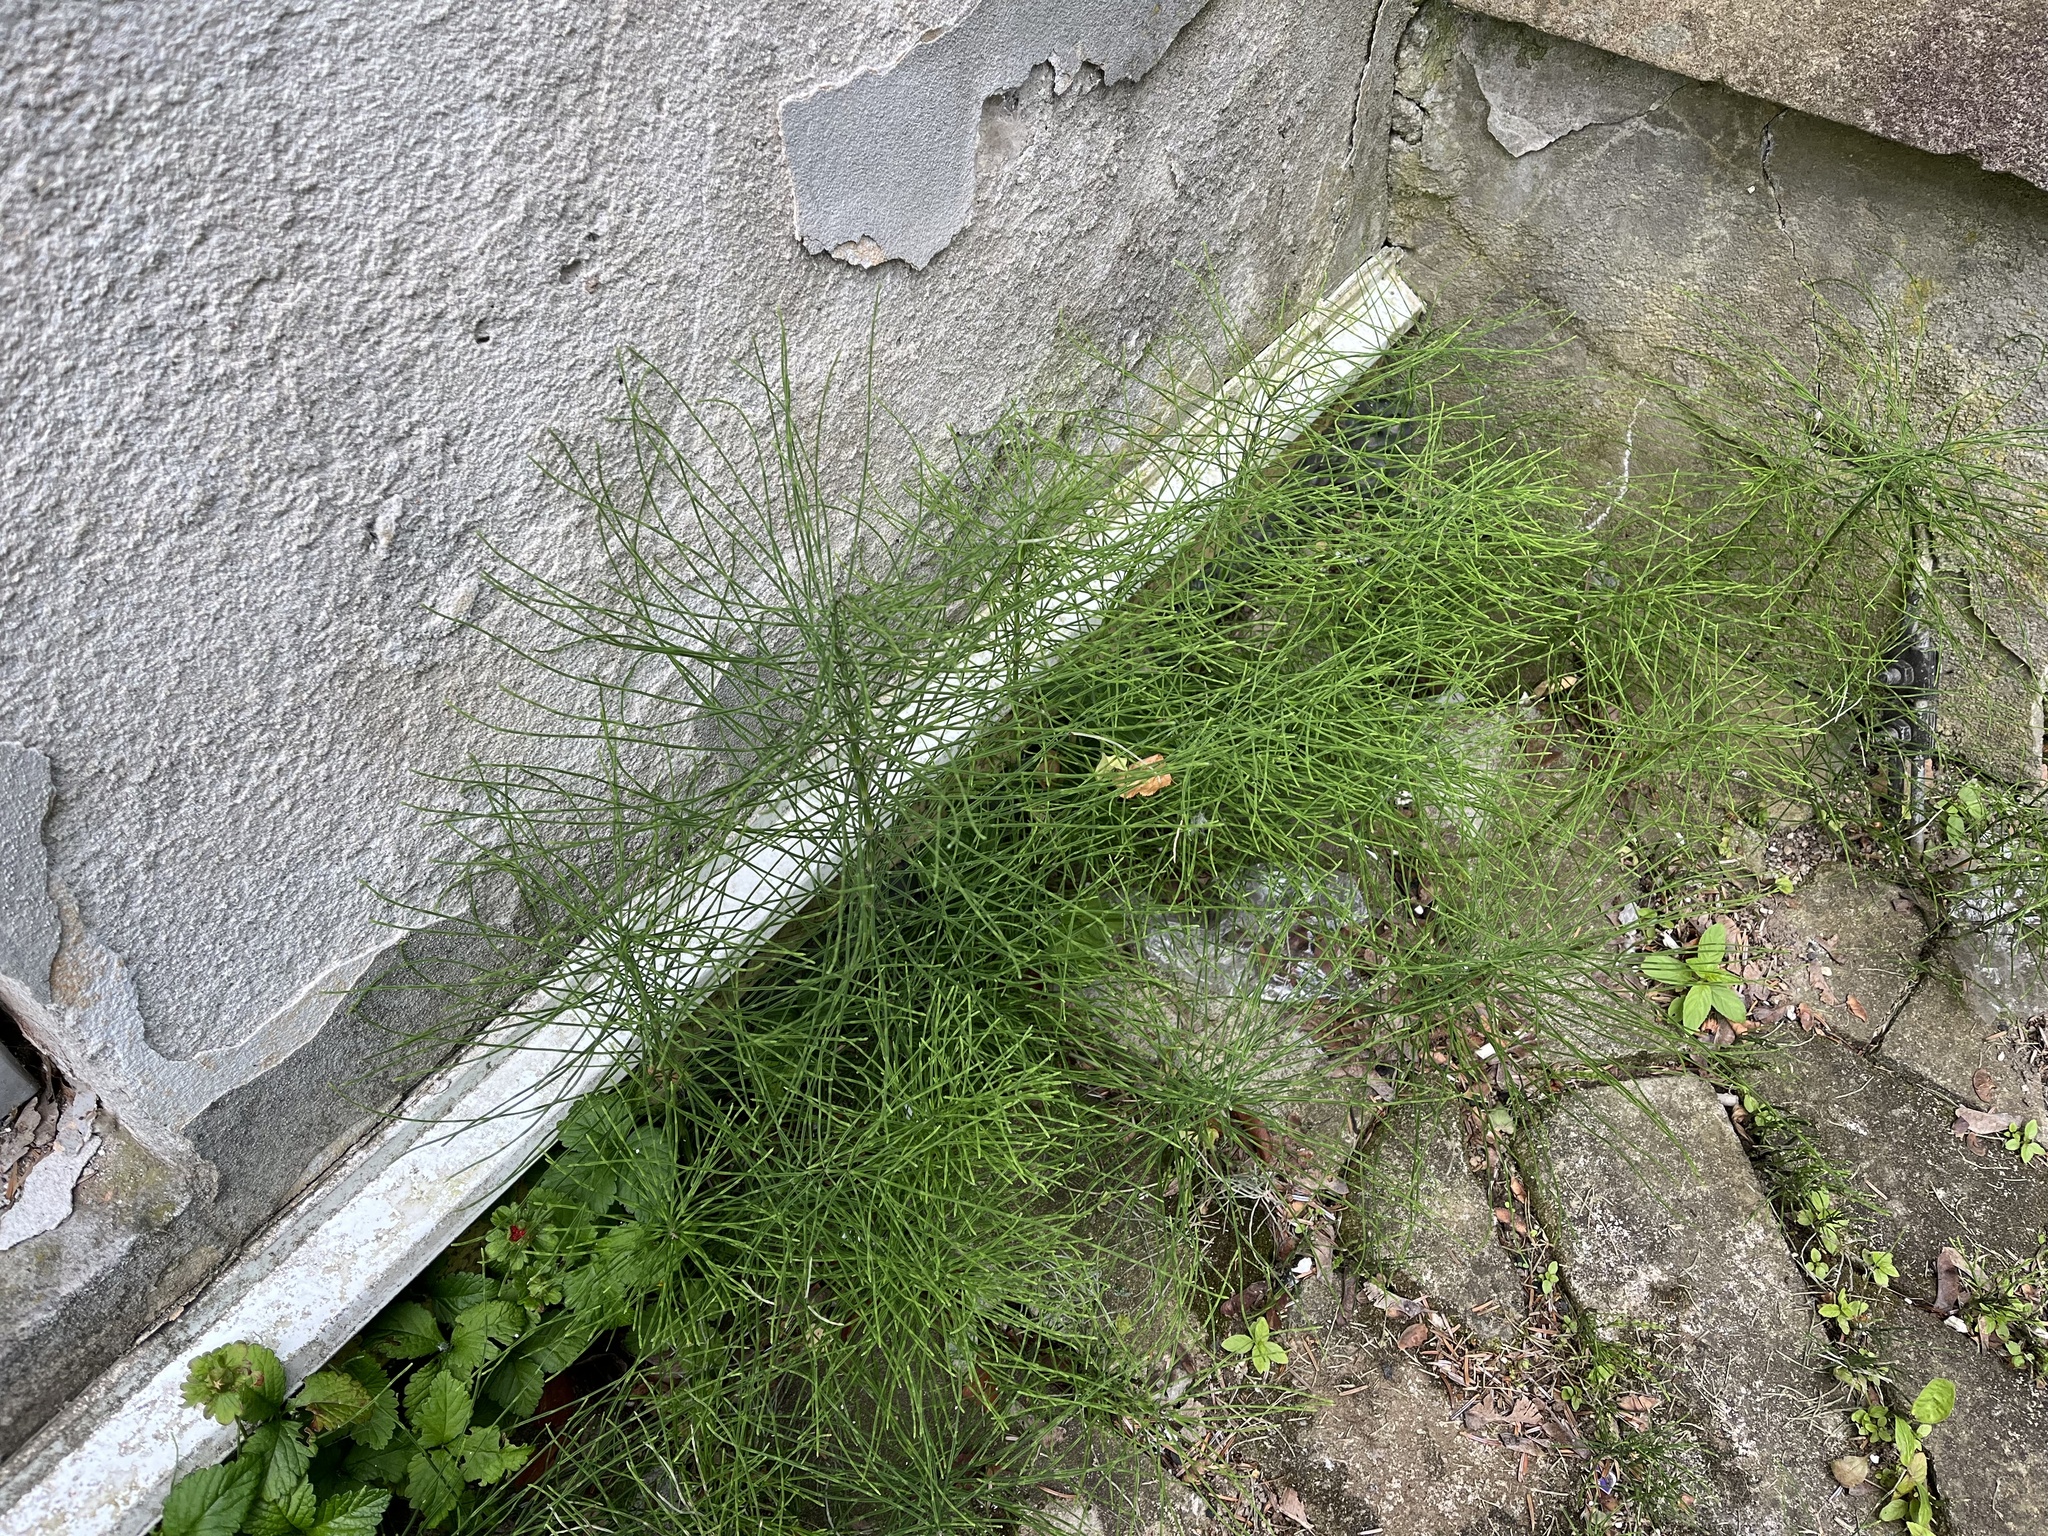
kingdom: Plantae
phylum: Tracheophyta
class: Polypodiopsida
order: Equisetales
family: Equisetaceae
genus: Equisetum
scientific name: Equisetum arvense
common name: Field horsetail
